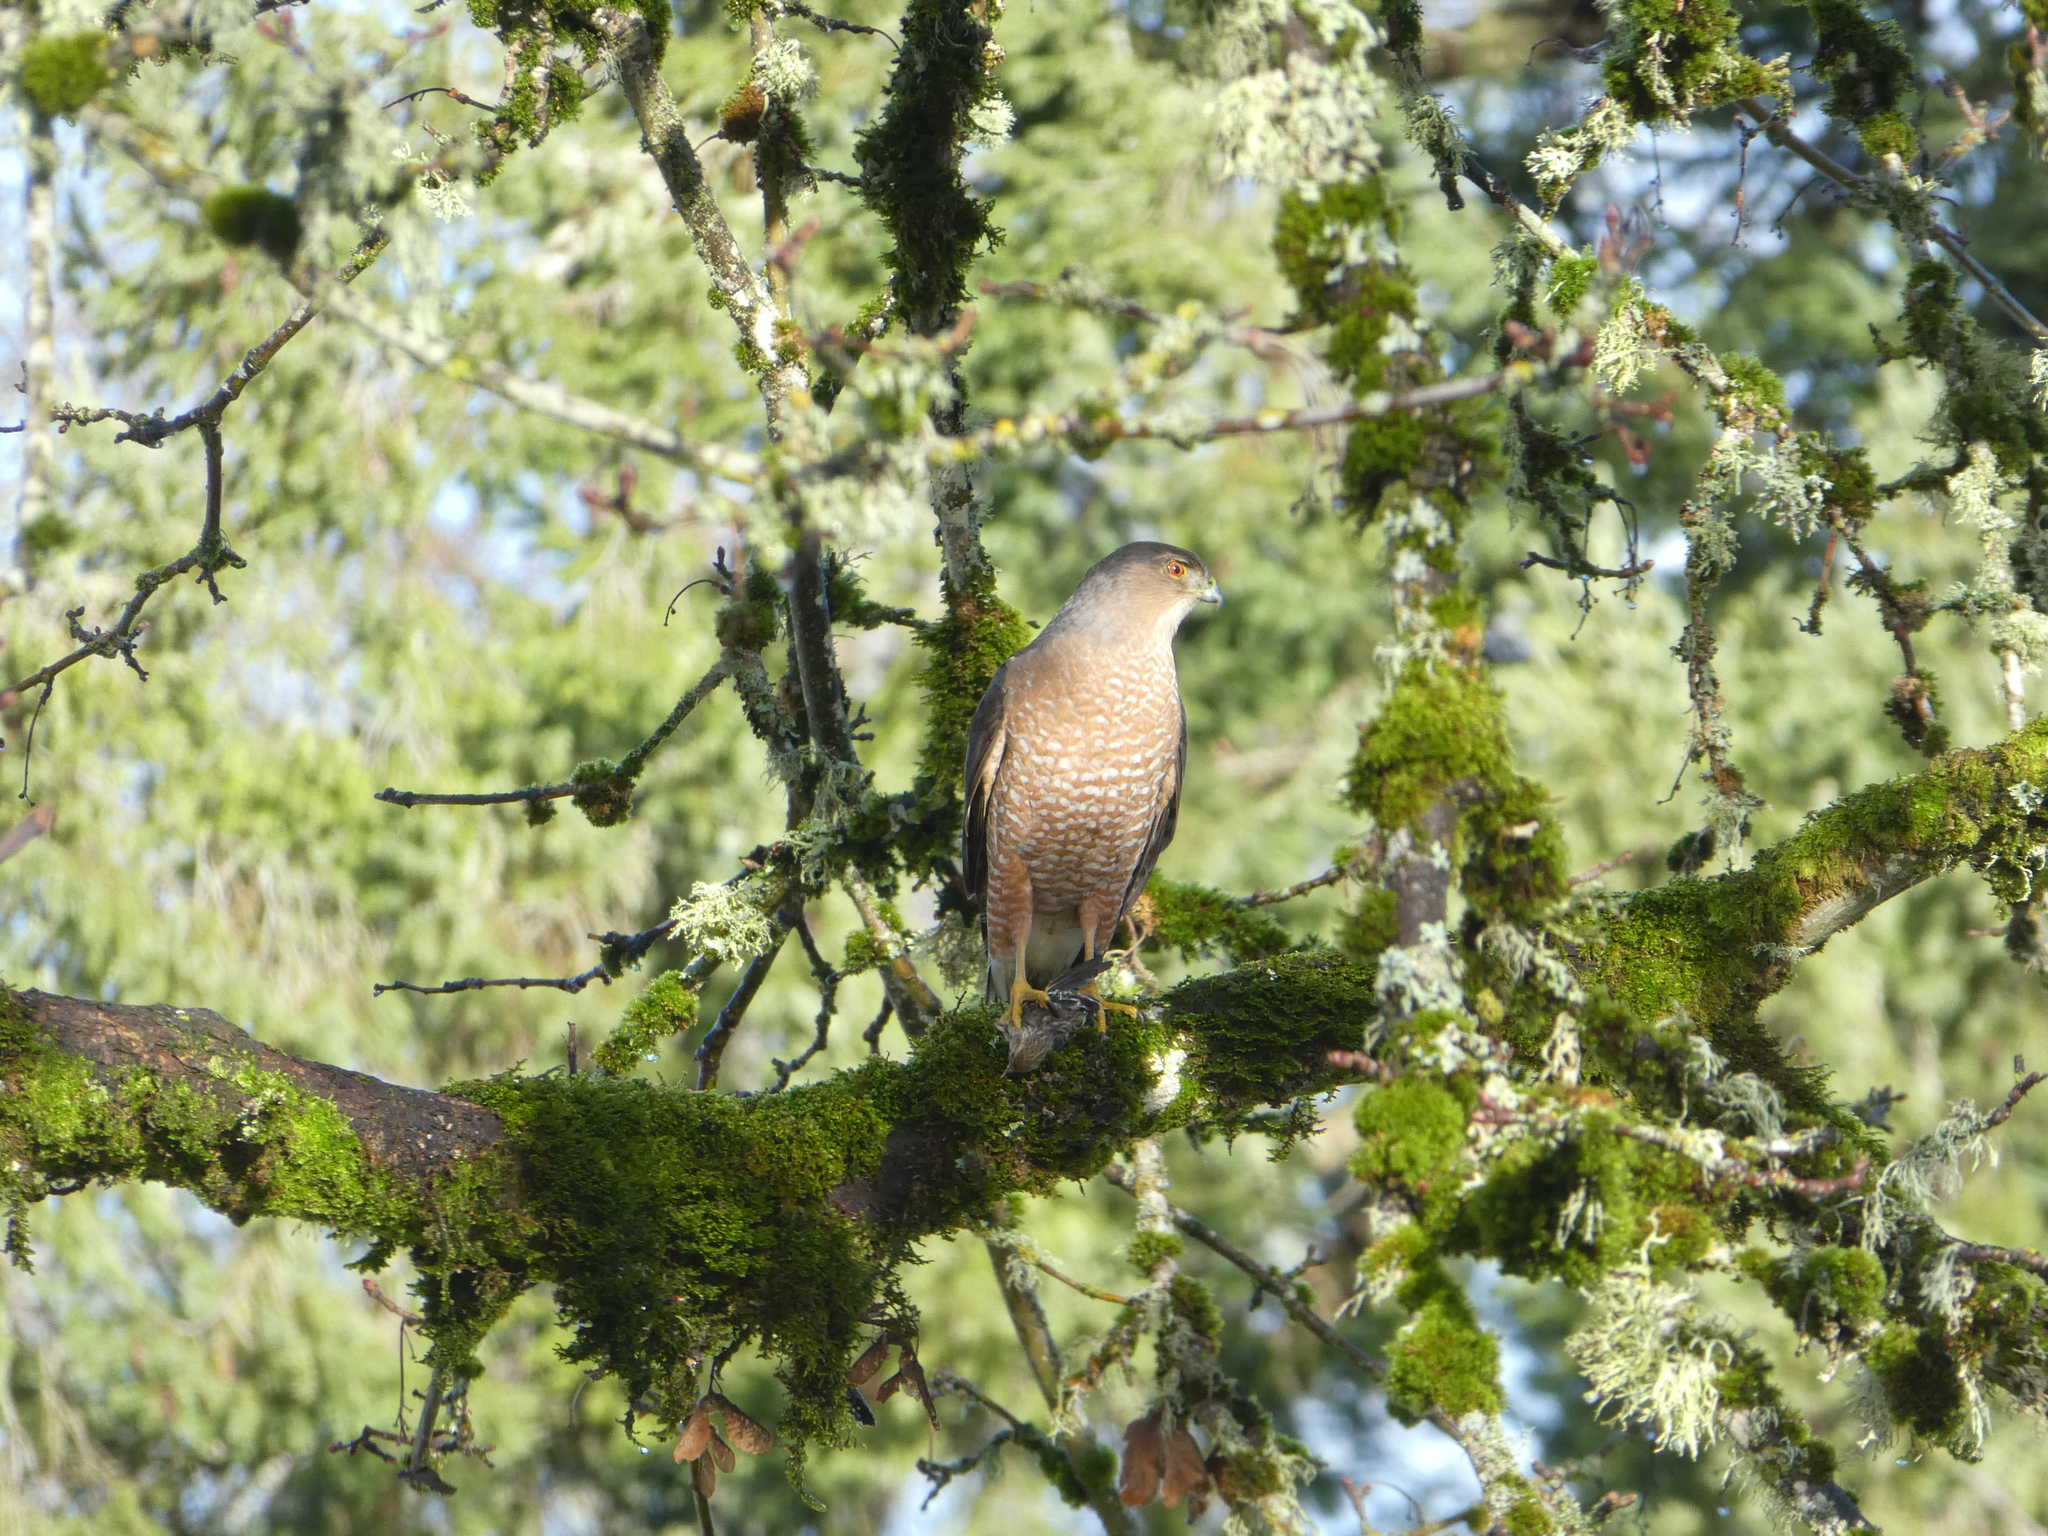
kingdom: Animalia
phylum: Chordata
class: Aves
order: Accipitriformes
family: Accipitridae
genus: Accipiter
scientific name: Accipiter cooperii
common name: Cooper's hawk
